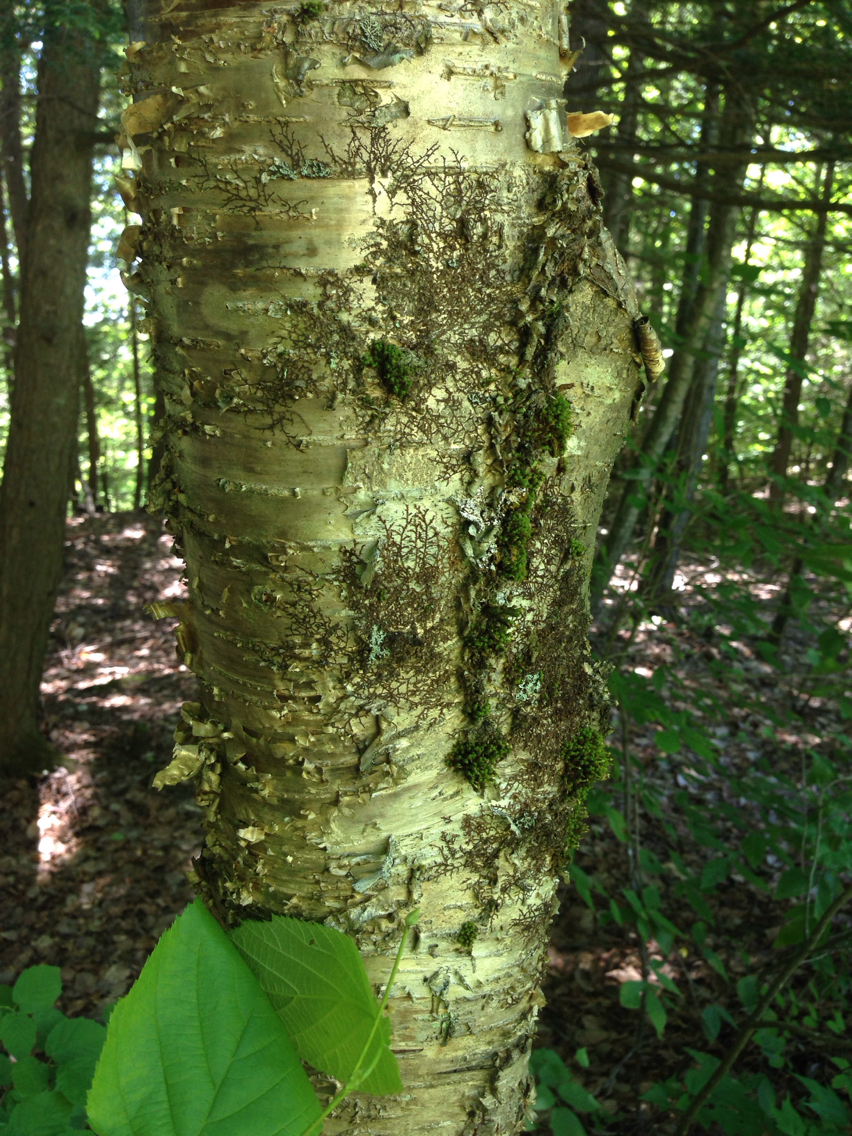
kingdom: Plantae
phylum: Tracheophyta
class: Magnoliopsida
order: Fagales
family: Betulaceae
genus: Betula
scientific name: Betula alleghaniensis
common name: Yellow birch
